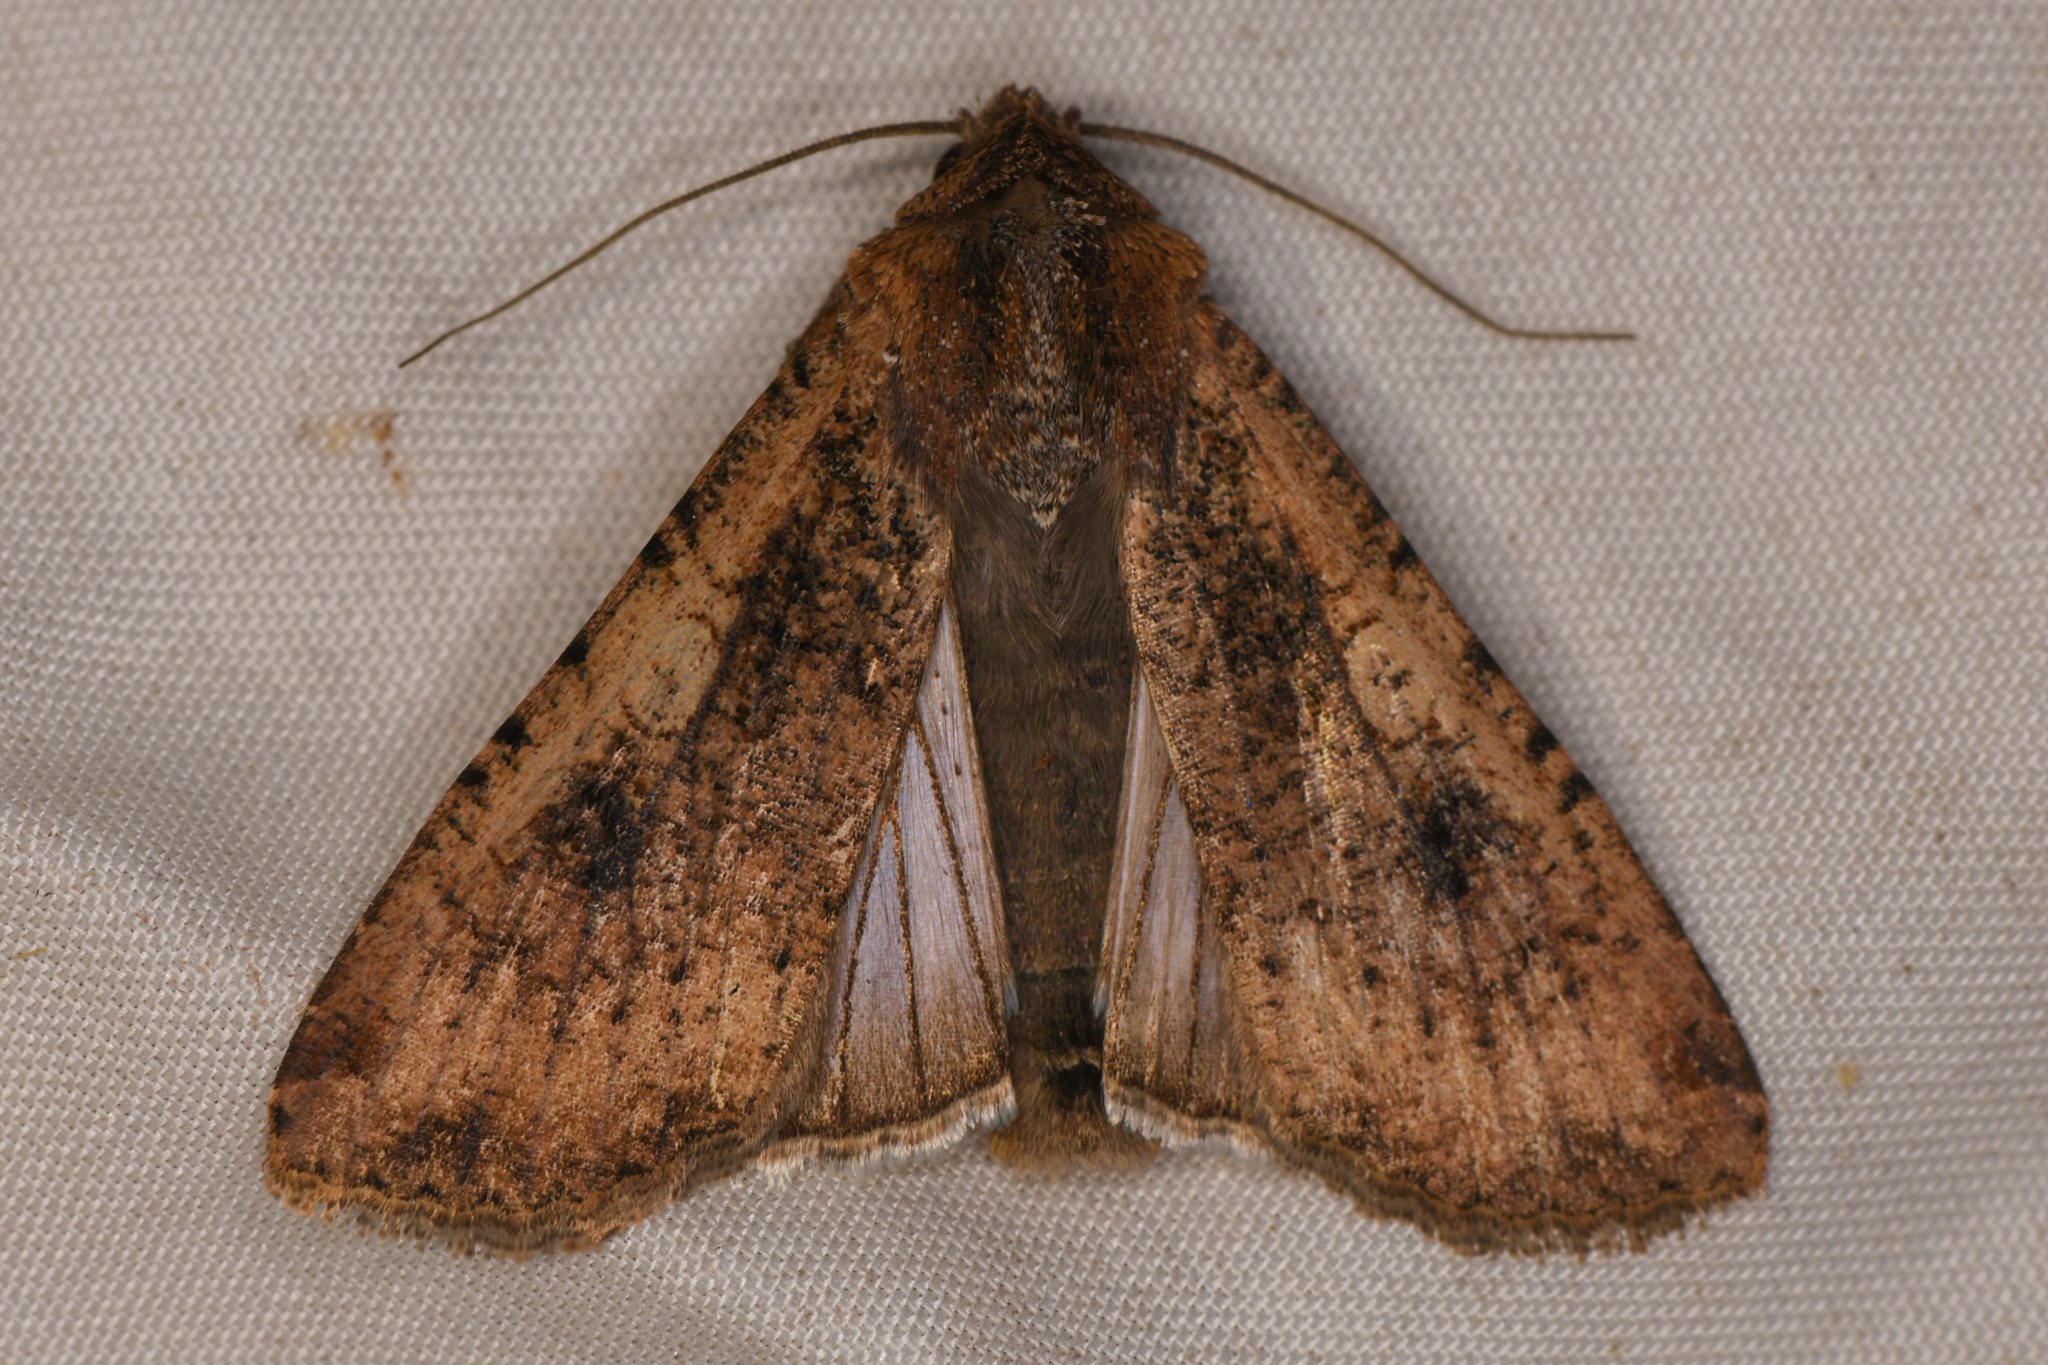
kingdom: Animalia
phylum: Arthropoda
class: Insecta
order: Lepidoptera
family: Noctuidae
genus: Peridroma
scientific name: Peridroma saucia
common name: Pearly underwing
